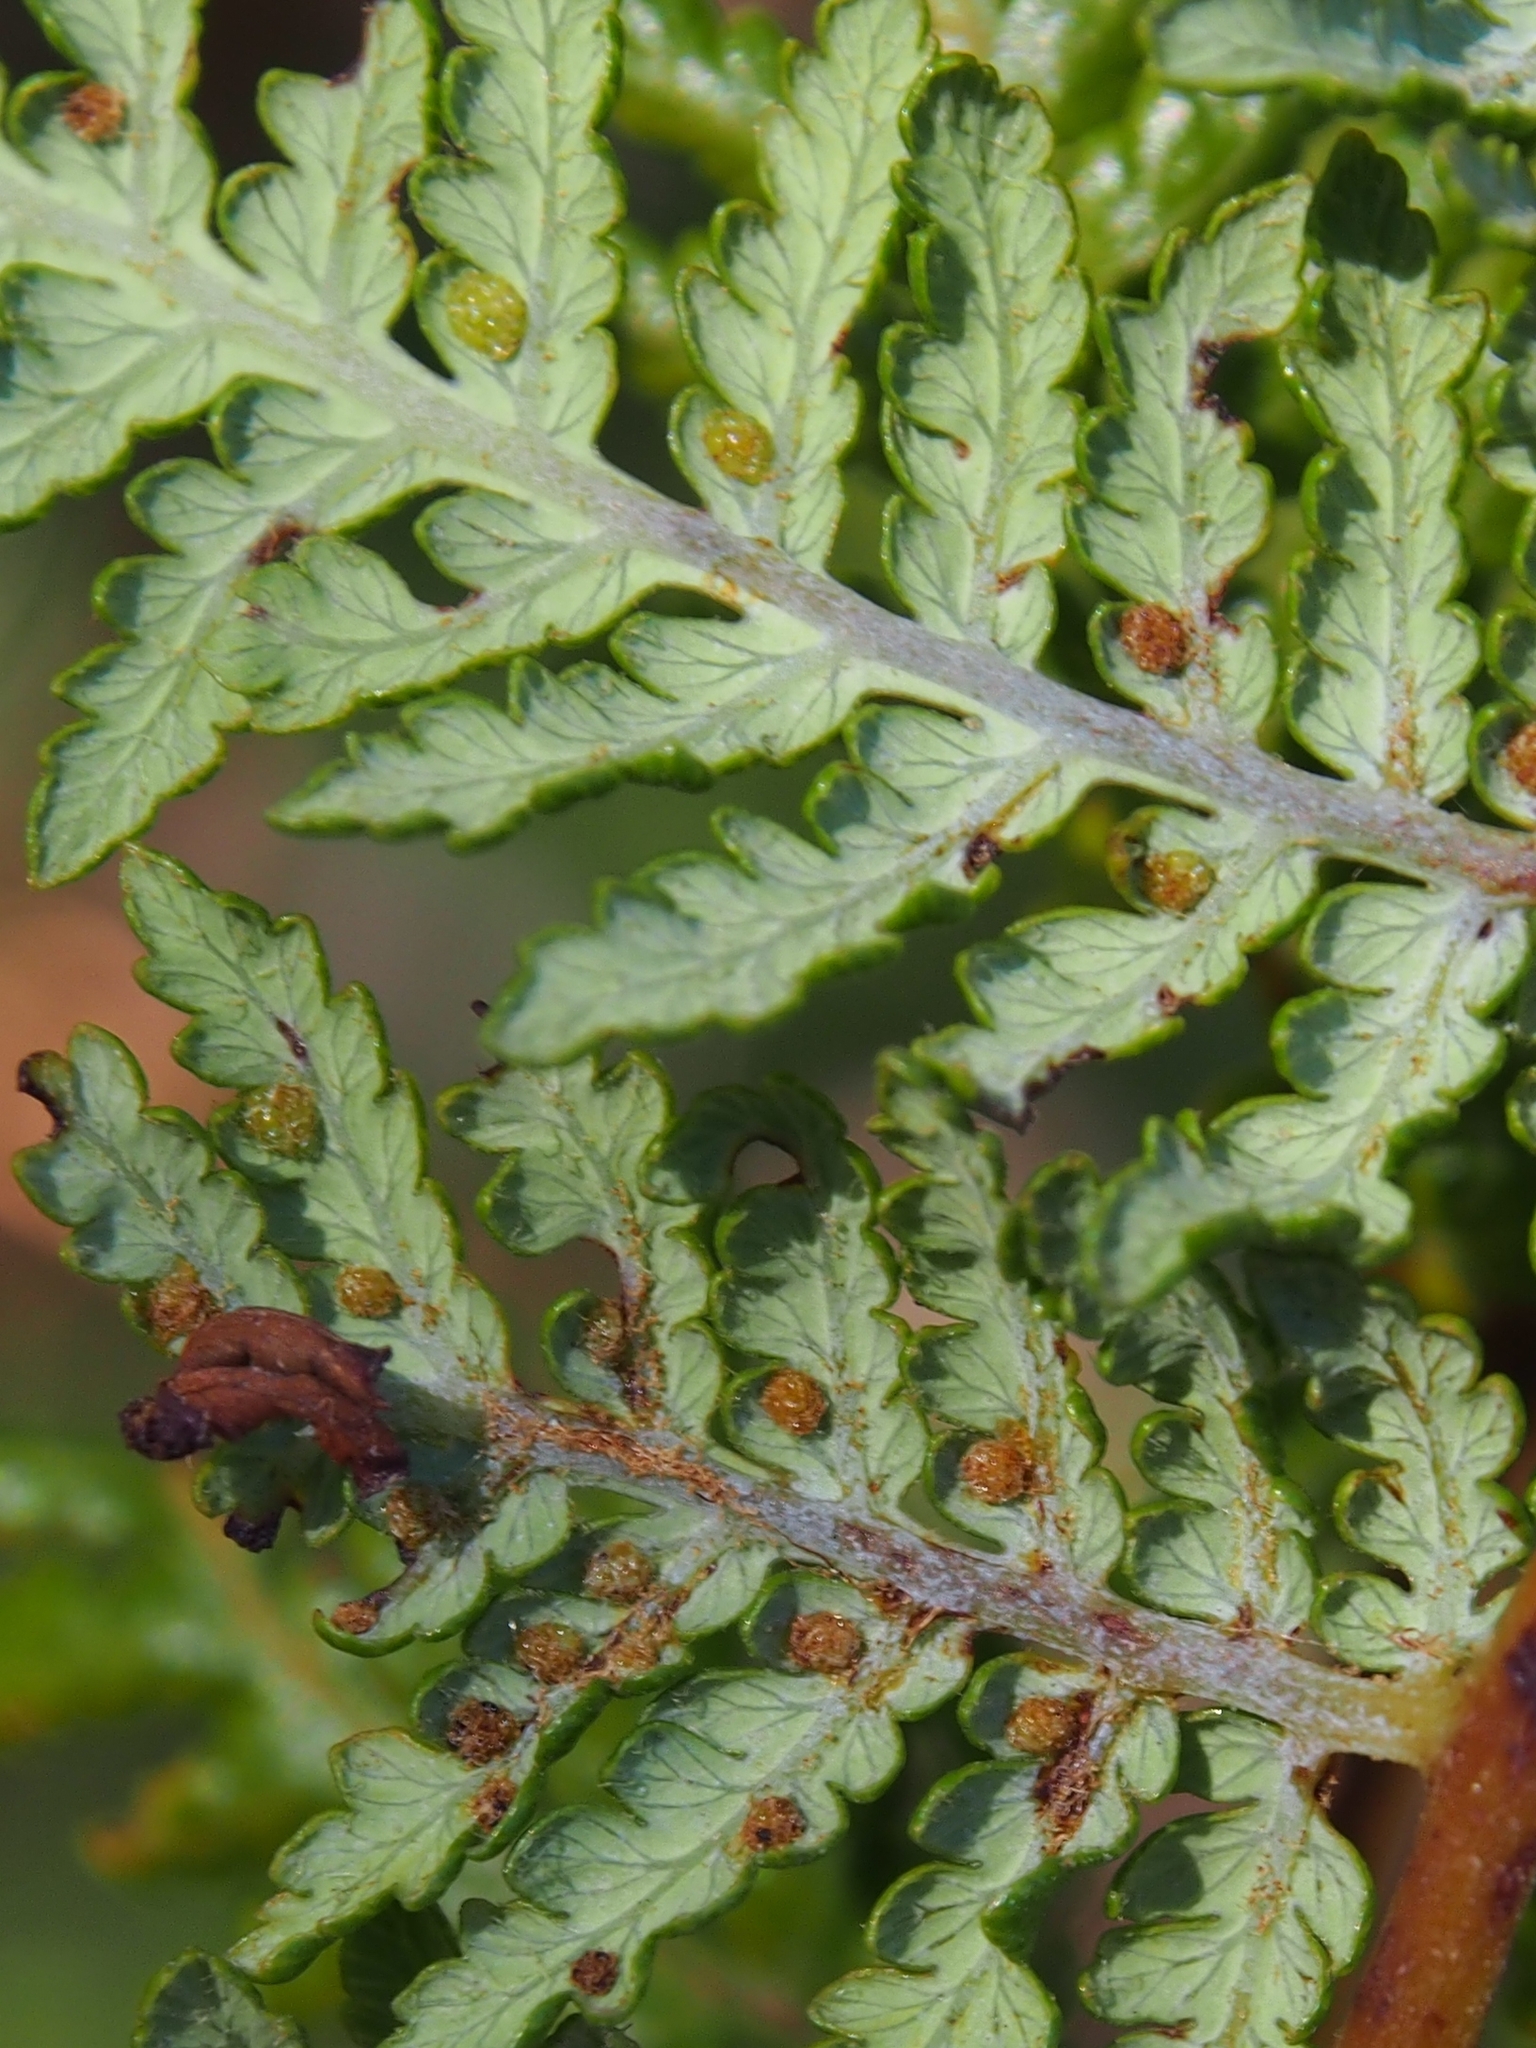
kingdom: Plantae
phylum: Tracheophyta
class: Polypodiopsida
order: Cyatheales
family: Dicksoniaceae
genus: Lophosoria
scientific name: Lophosoria quadripinnata
